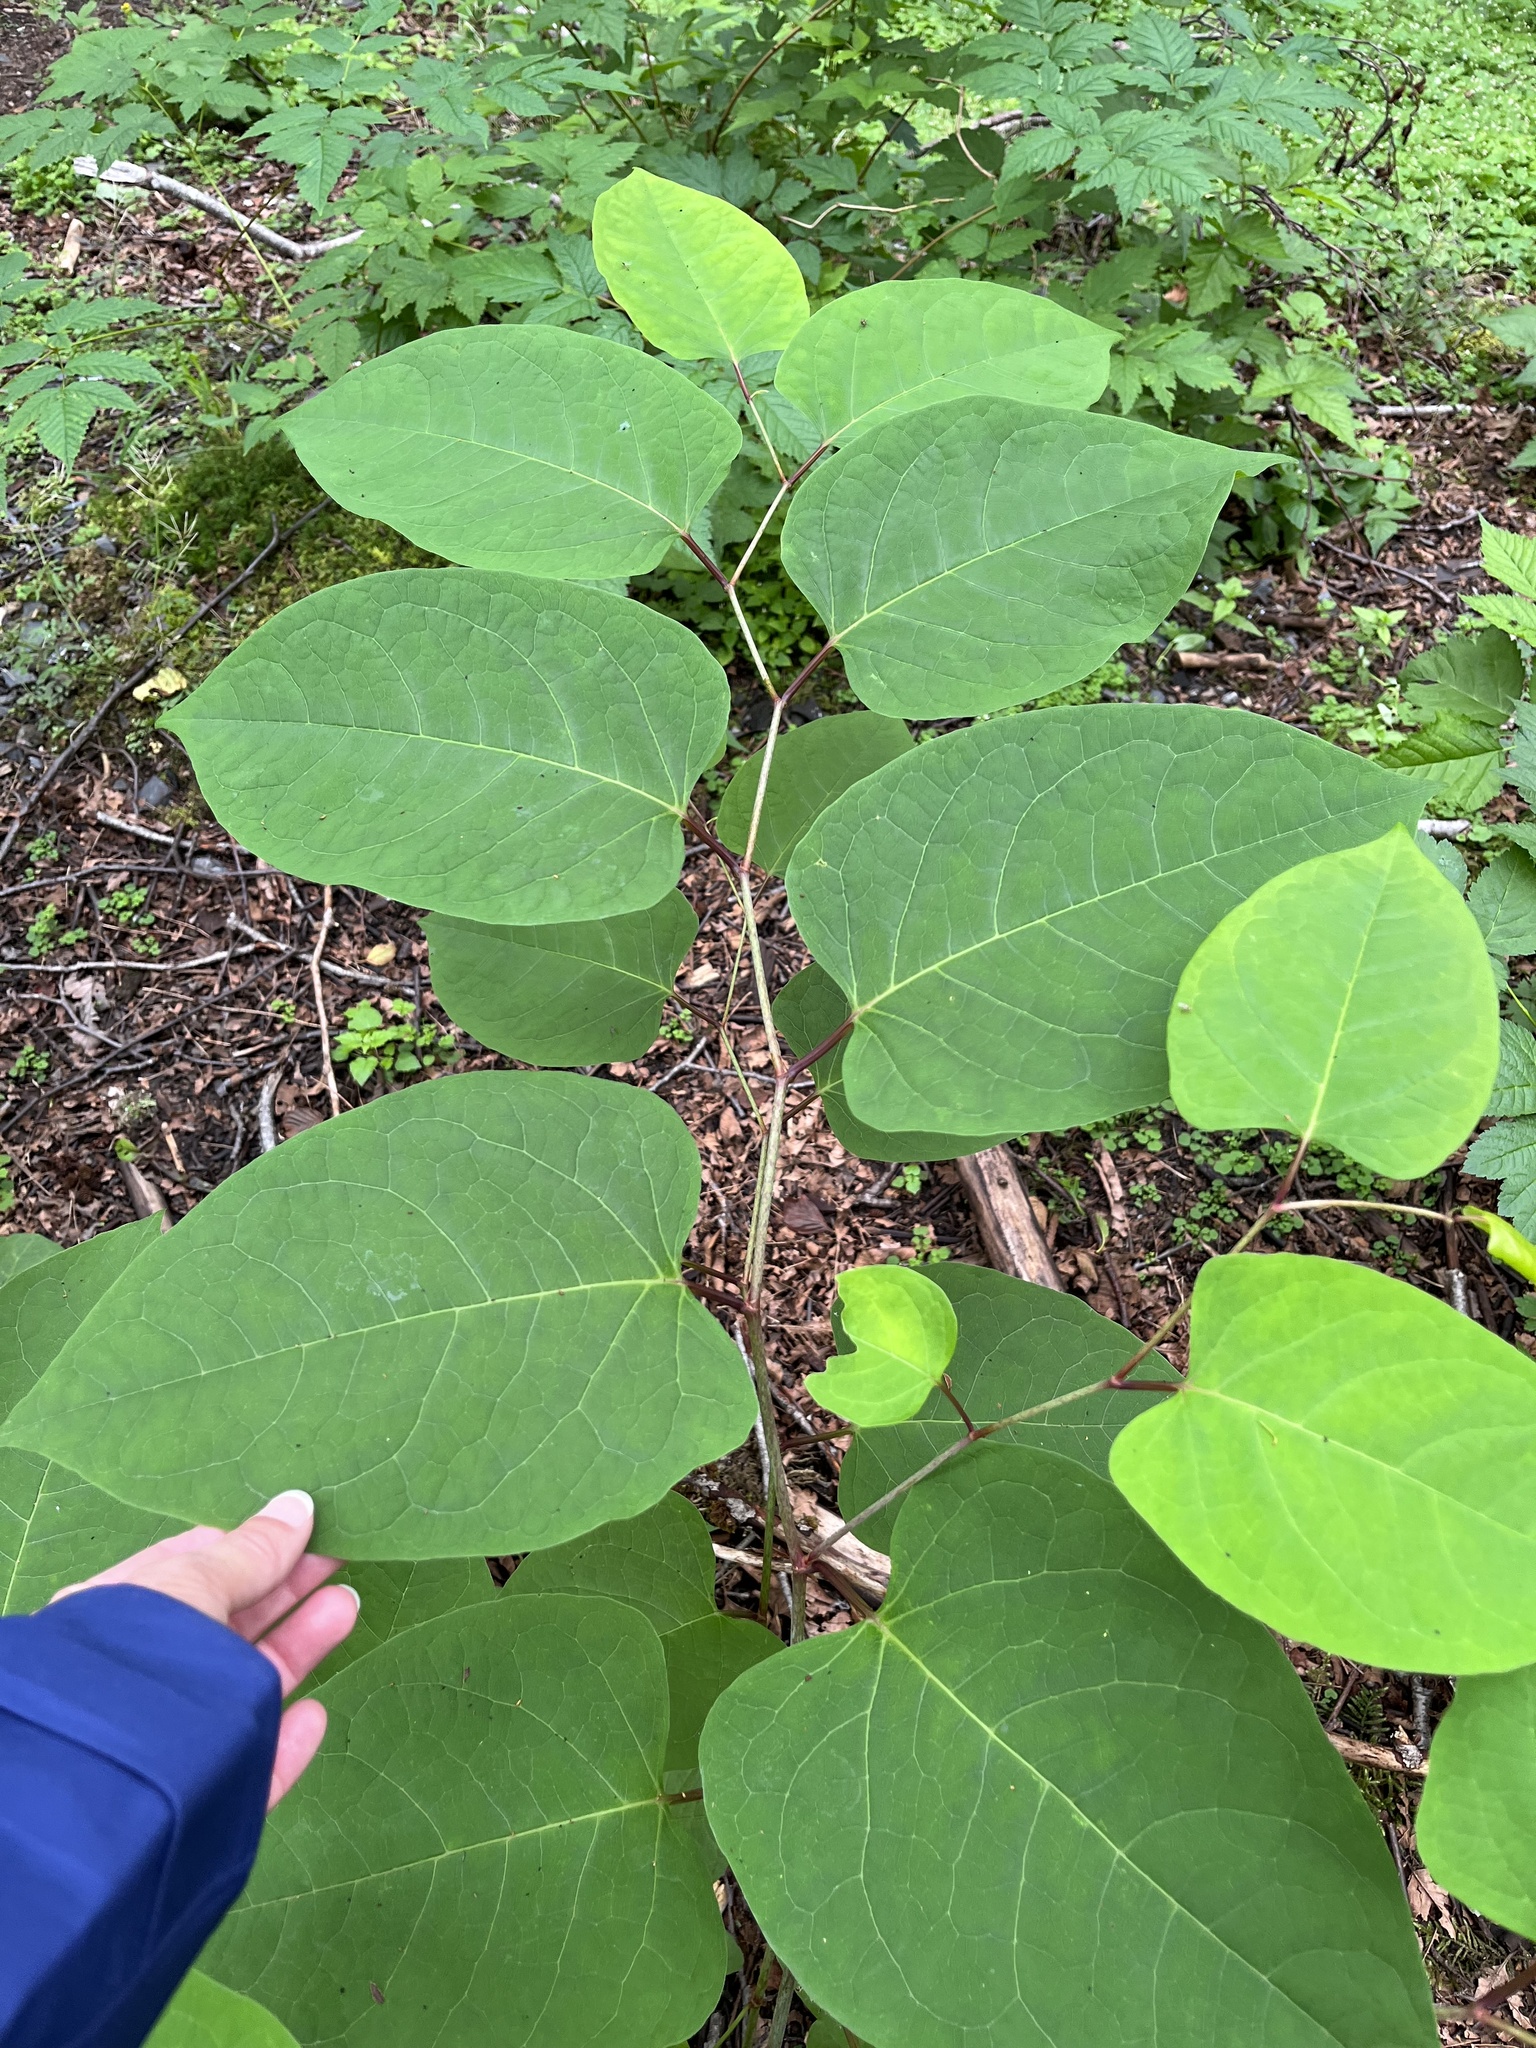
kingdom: Plantae
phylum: Tracheophyta
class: Magnoliopsida
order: Caryophyllales
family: Polygonaceae
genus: Reynoutria
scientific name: Reynoutria japonica
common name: Japanese knotweed
